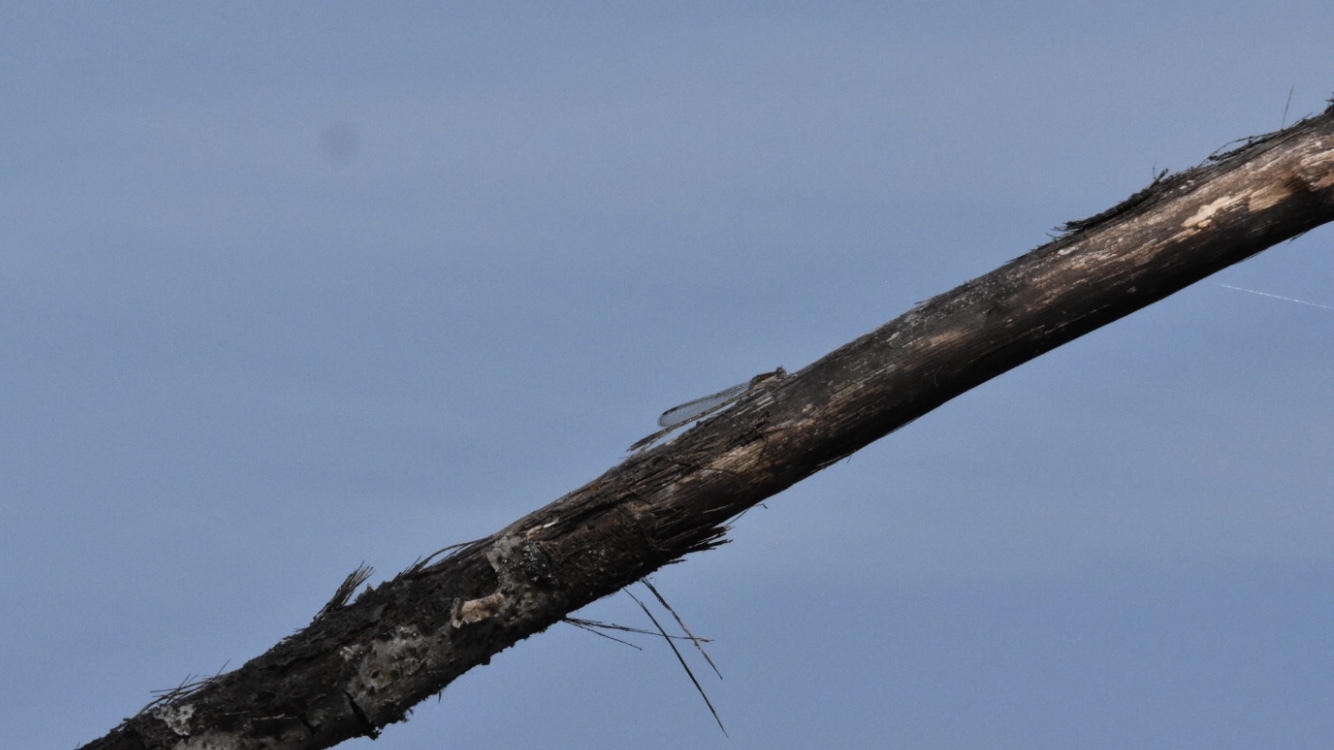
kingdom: Animalia
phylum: Arthropoda
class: Insecta
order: Odonata
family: Lestidae
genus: Sympecma
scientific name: Sympecma fusca
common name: Common winter damsel
